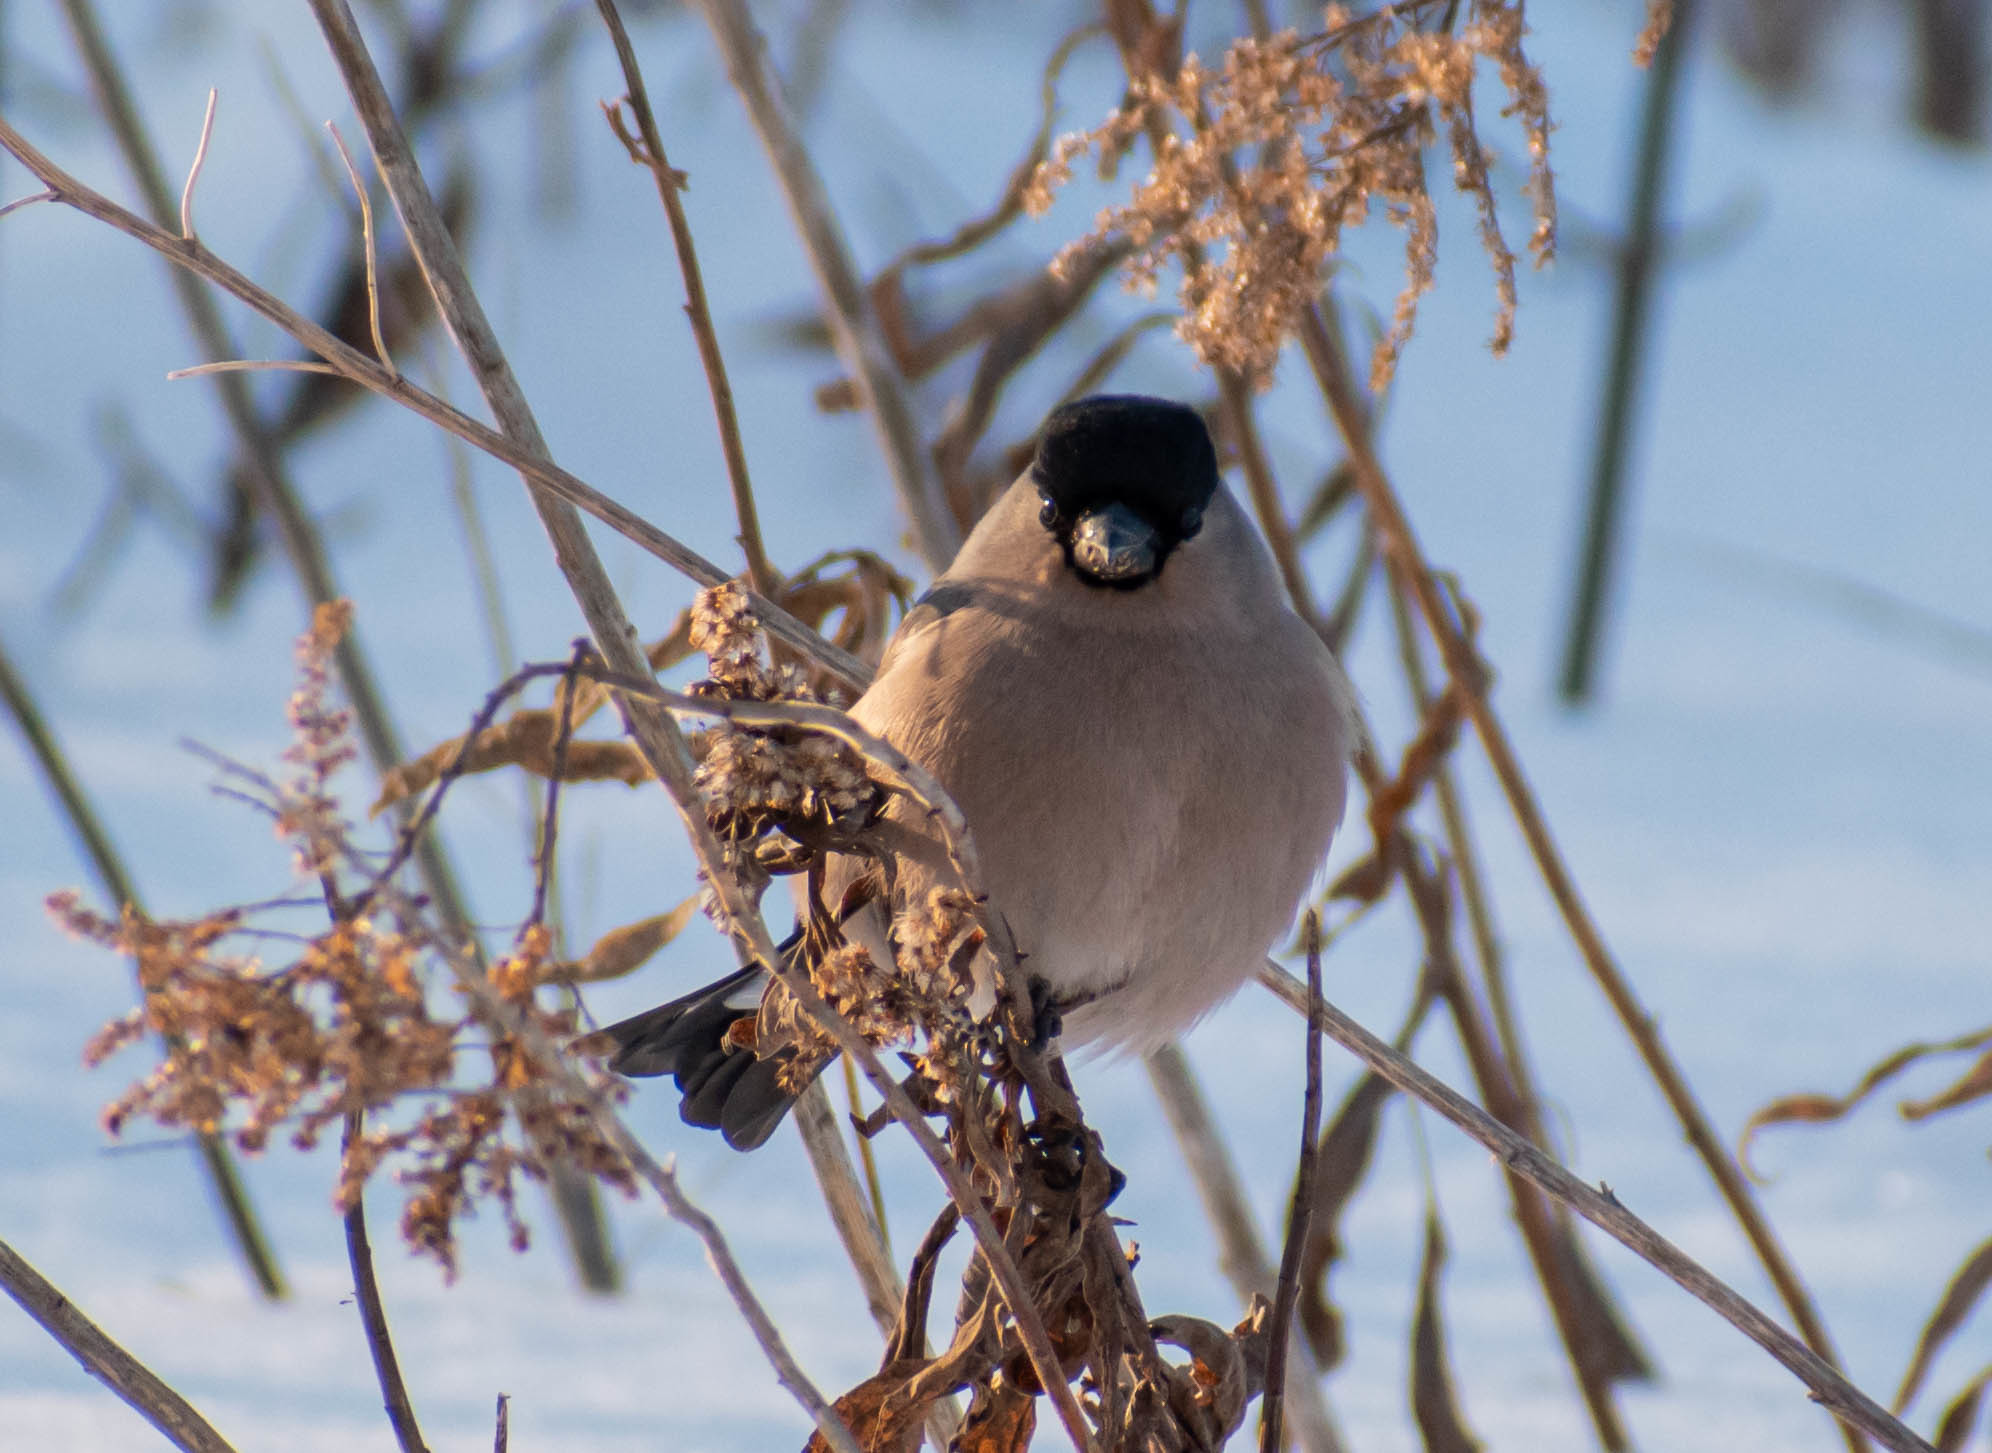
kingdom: Animalia
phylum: Chordata
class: Aves
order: Passeriformes
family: Fringillidae
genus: Pyrrhula
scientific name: Pyrrhula pyrrhula
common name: Eurasian bullfinch
